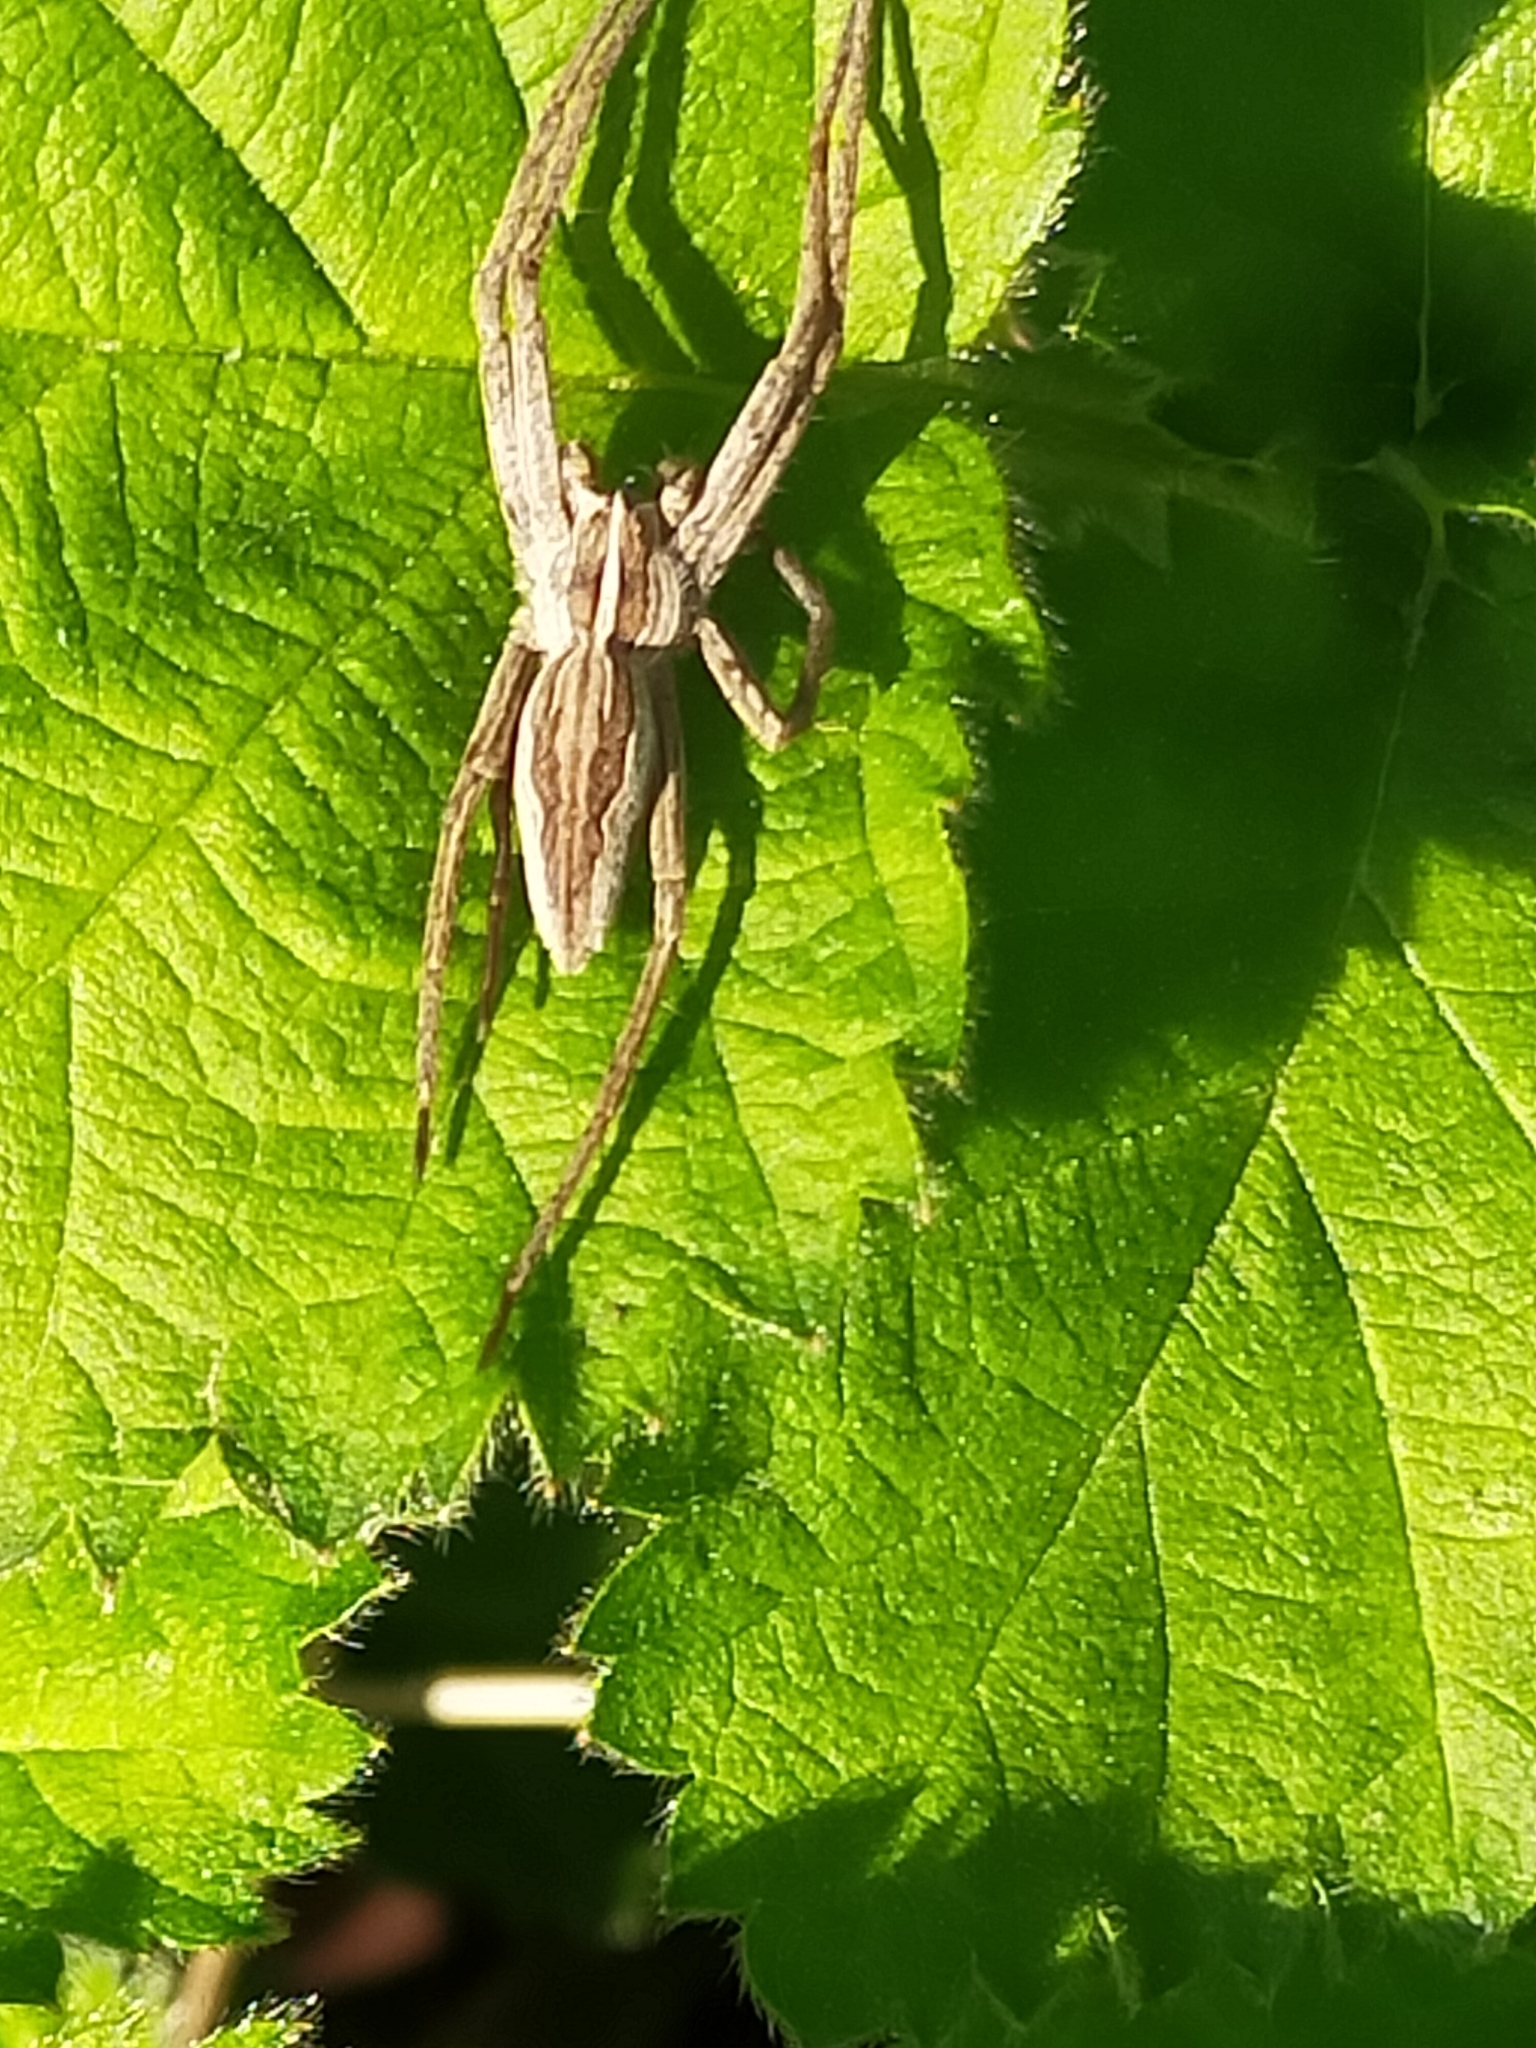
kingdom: Animalia
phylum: Arthropoda
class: Arachnida
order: Araneae
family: Pisauridae
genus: Pisaura
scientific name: Pisaura mirabilis
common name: Tent spider
